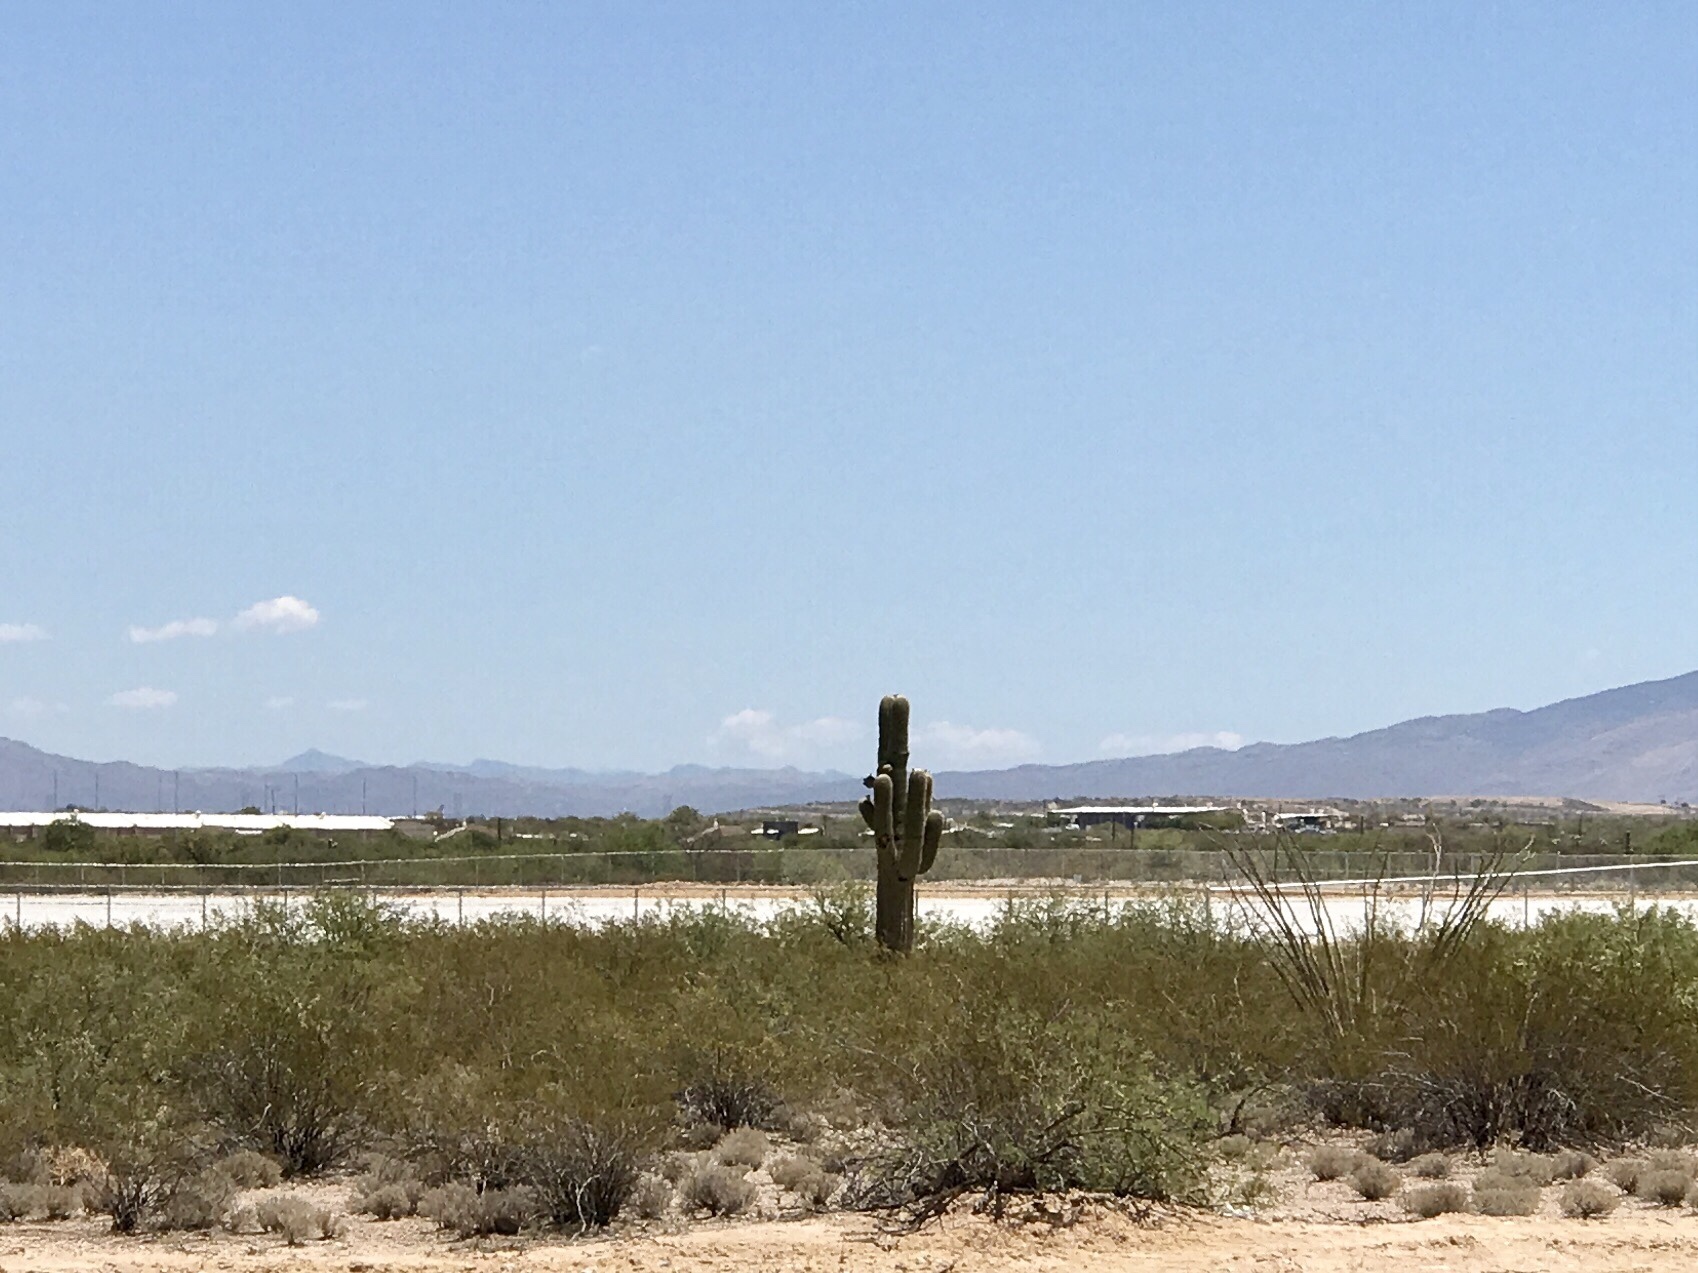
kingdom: Plantae
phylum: Tracheophyta
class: Magnoliopsida
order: Caryophyllales
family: Cactaceae
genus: Carnegiea
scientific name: Carnegiea gigantea
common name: Saguaro
